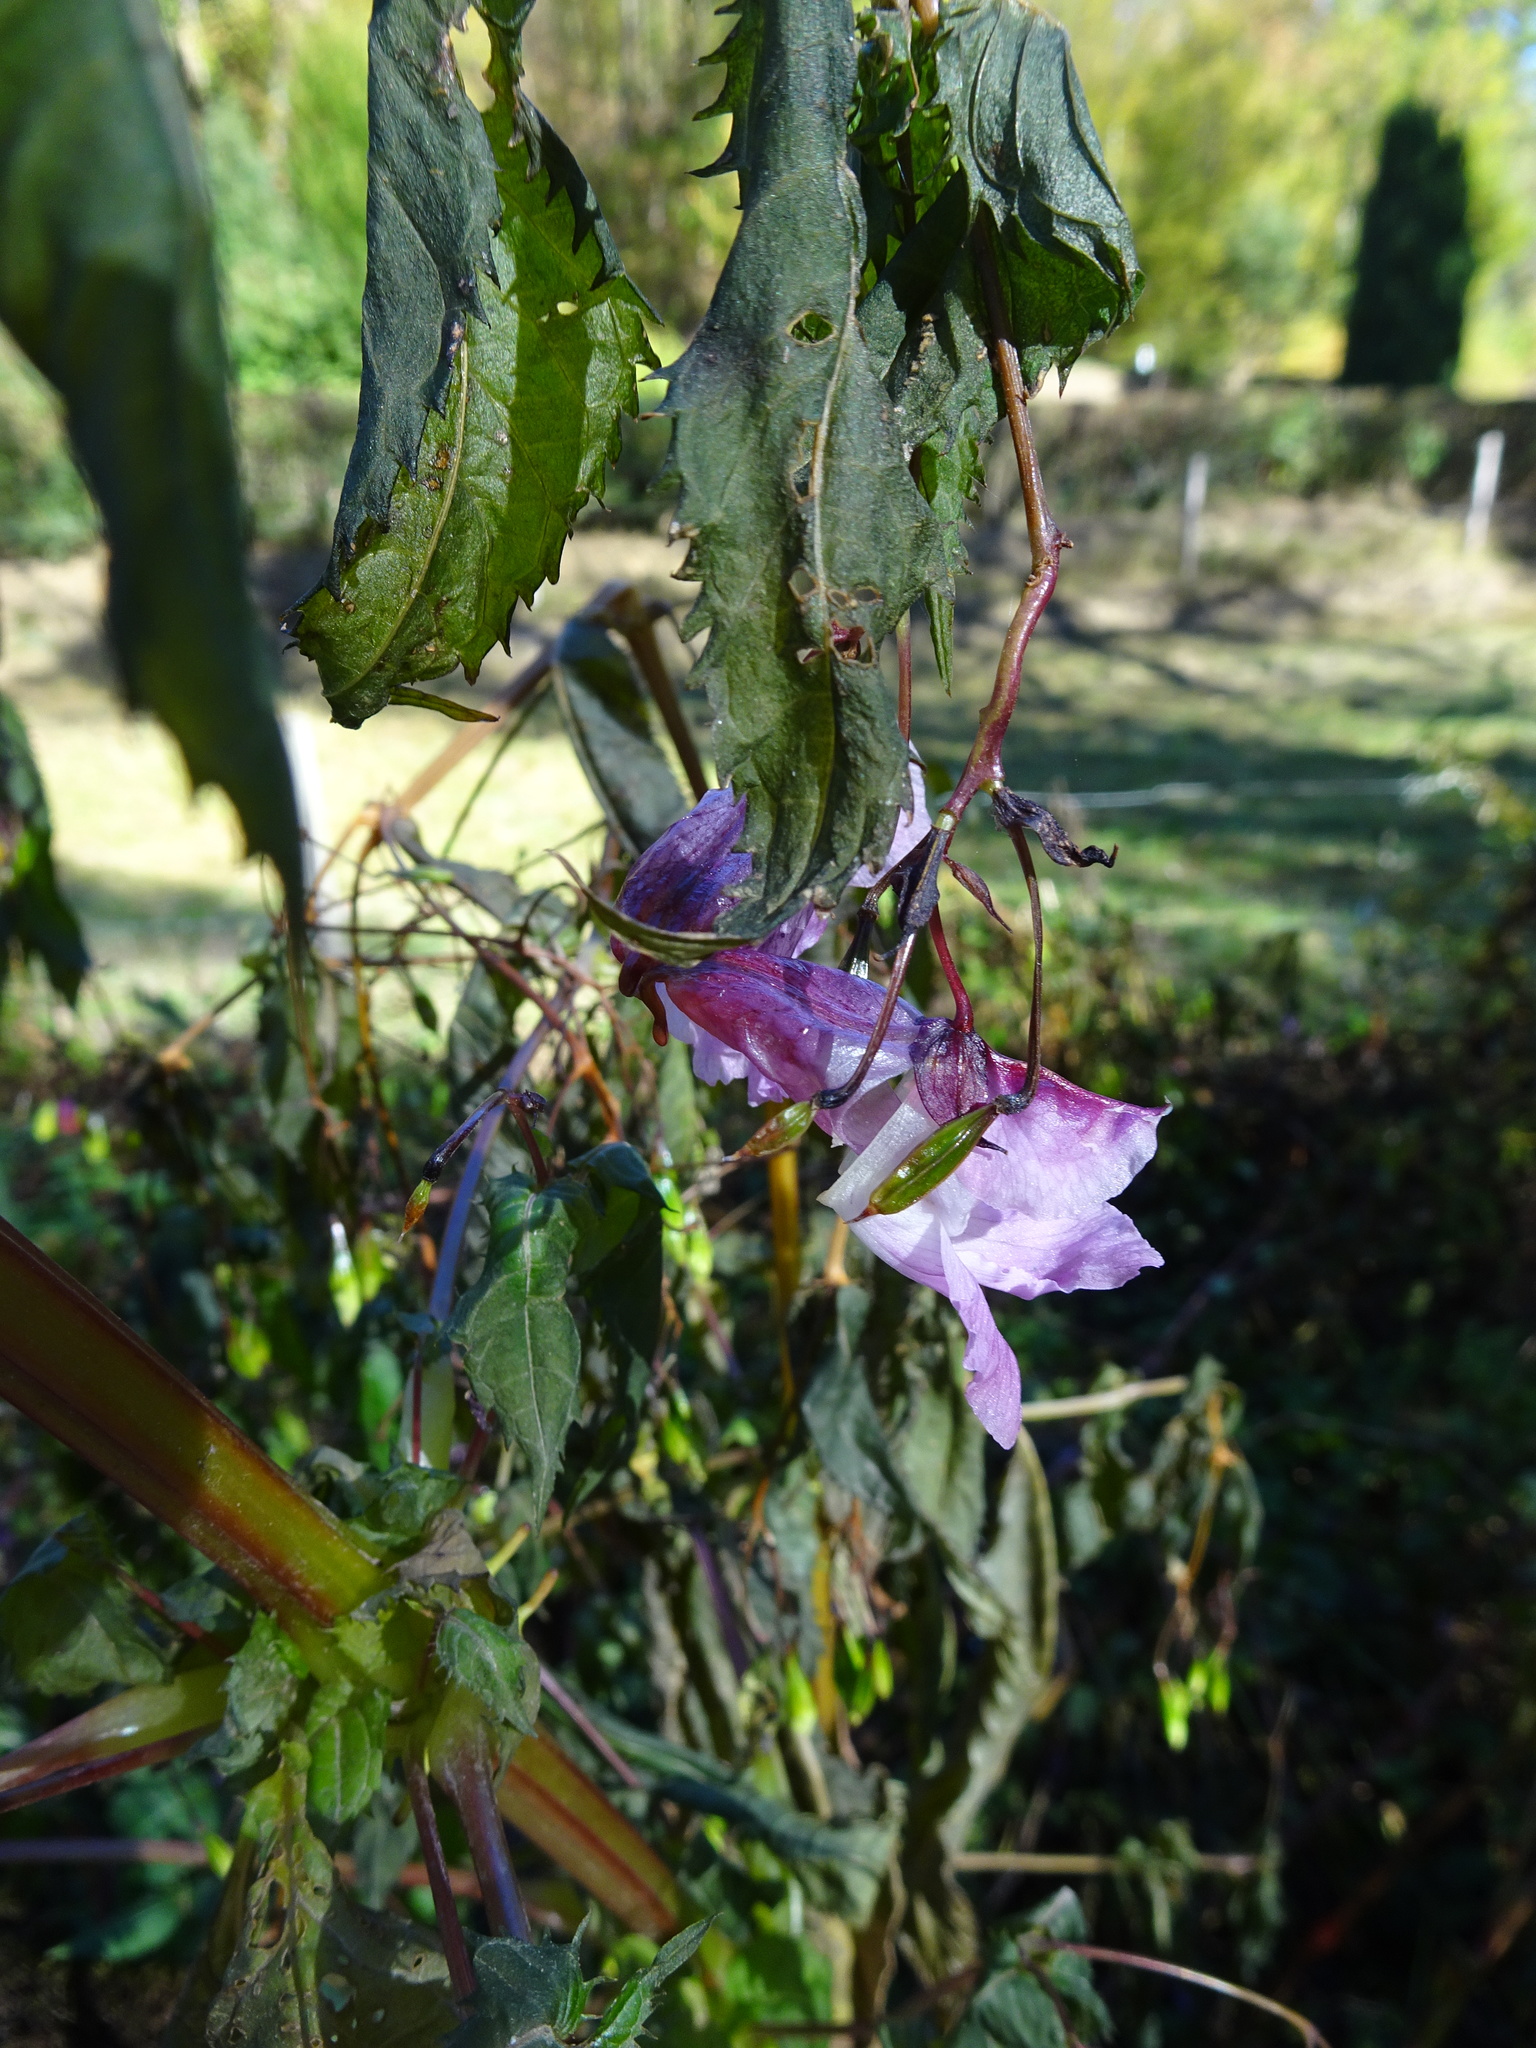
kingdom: Plantae
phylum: Tracheophyta
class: Magnoliopsida
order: Ericales
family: Balsaminaceae
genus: Impatiens
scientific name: Impatiens glandulifera
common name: Himalayan balsam
